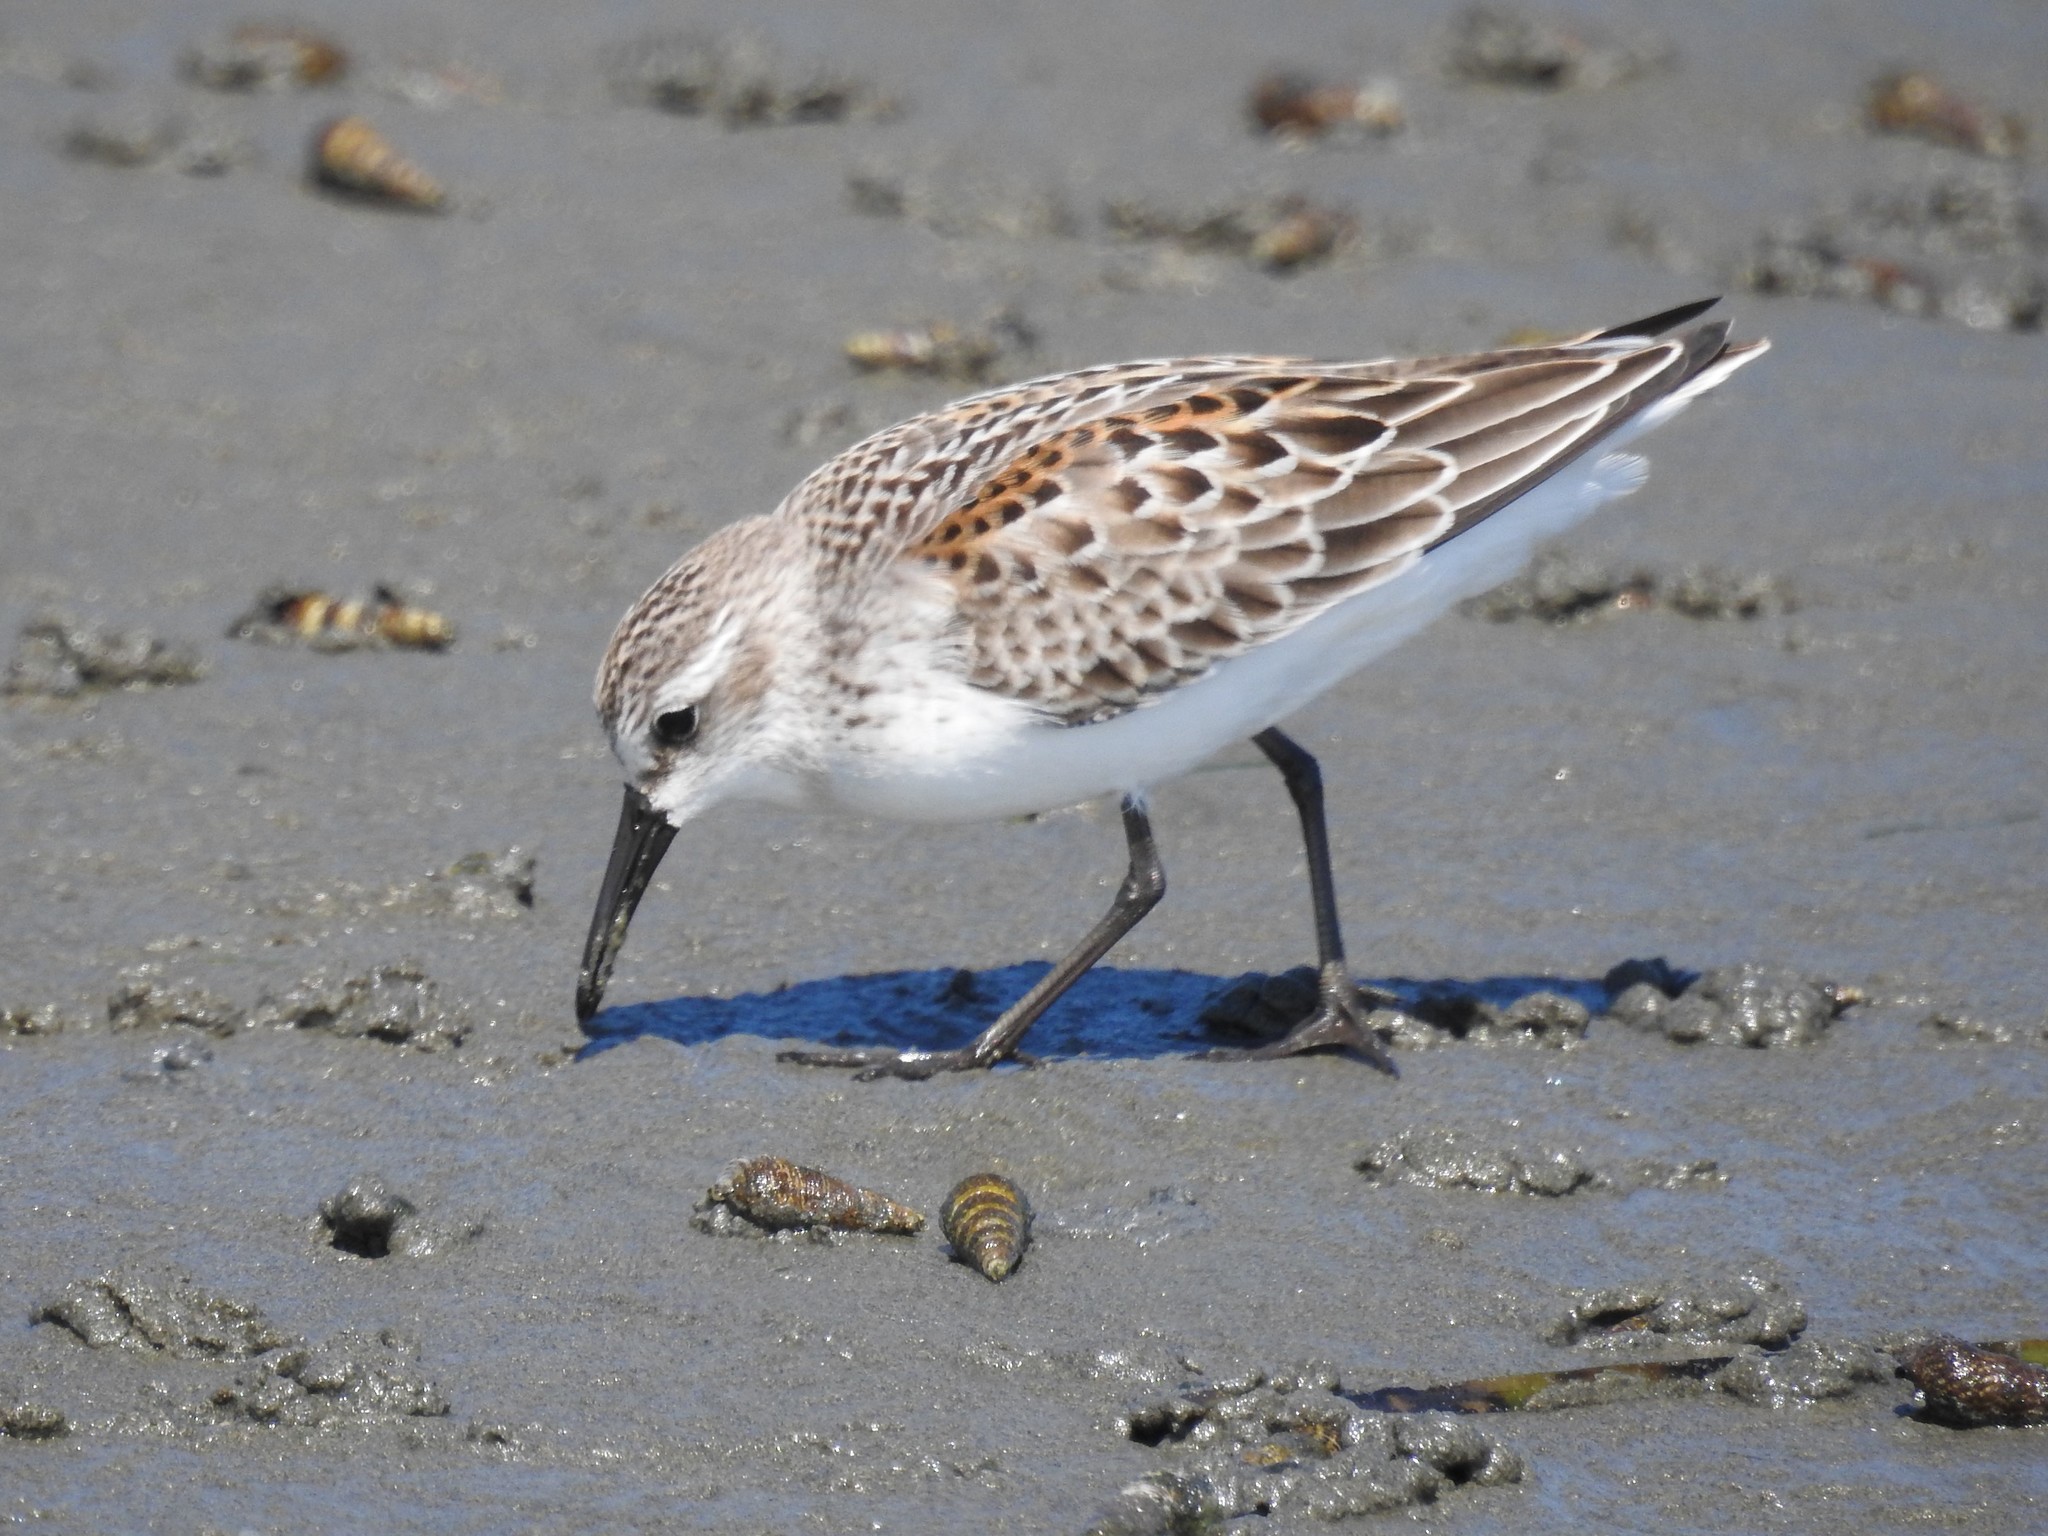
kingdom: Animalia
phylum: Chordata
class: Aves
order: Charadriiformes
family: Scolopacidae
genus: Calidris
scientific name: Calidris mauri
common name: Western sandpiper
